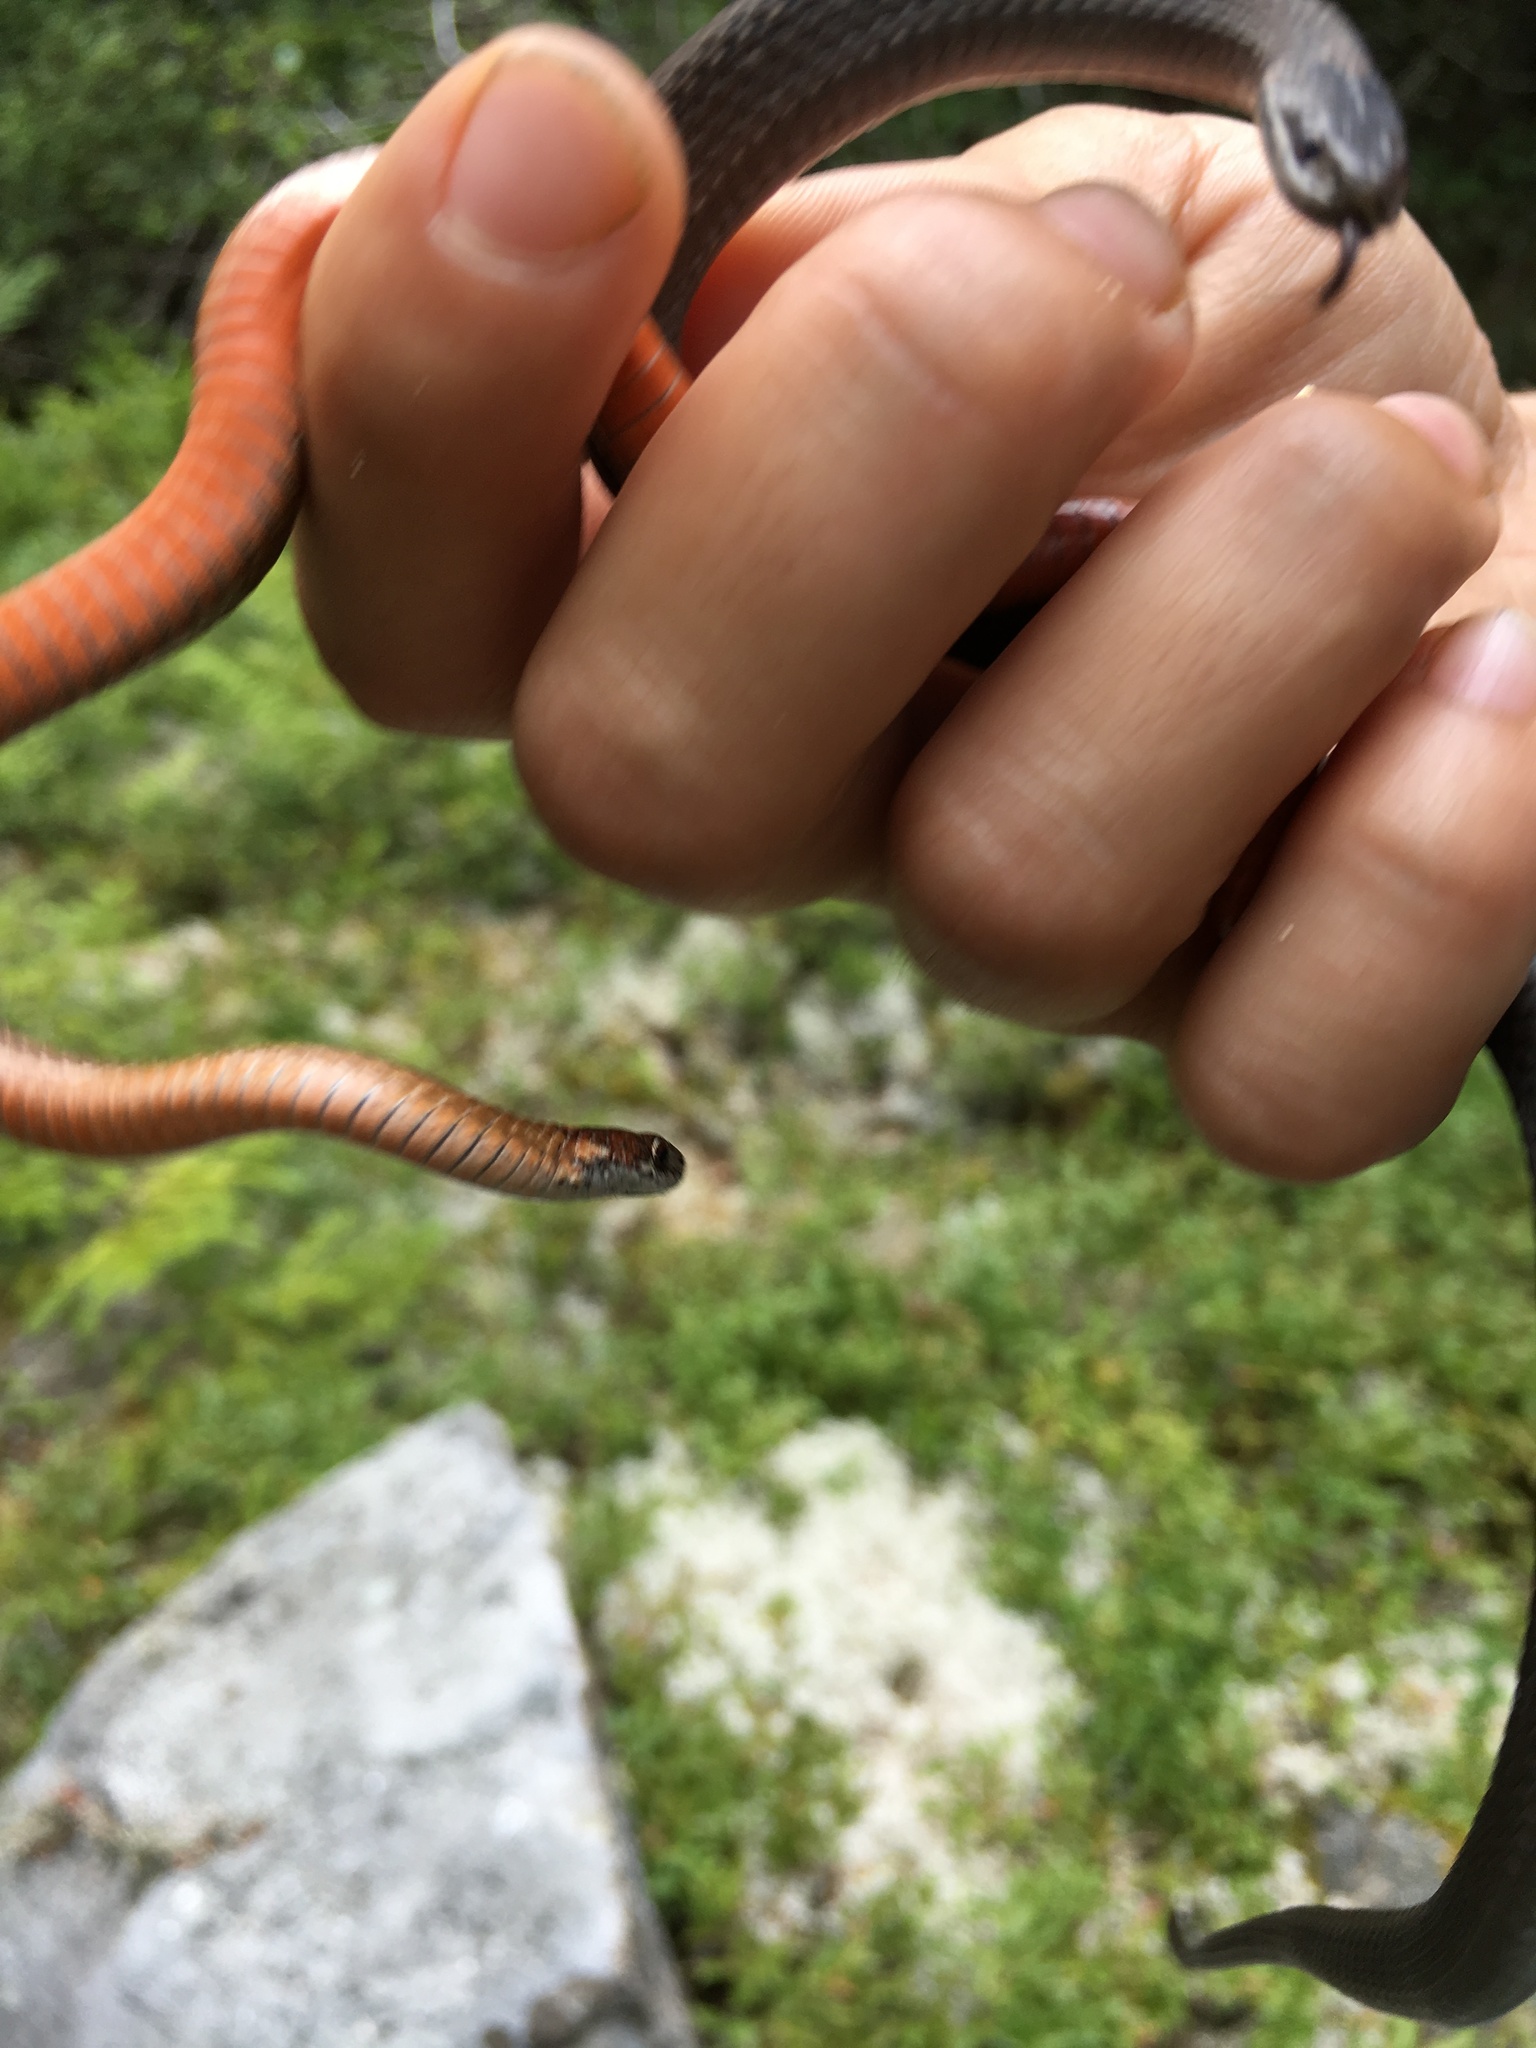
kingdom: Animalia
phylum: Chordata
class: Squamata
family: Colubridae
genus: Storeria
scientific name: Storeria occipitomaculata
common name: Redbelly snake
